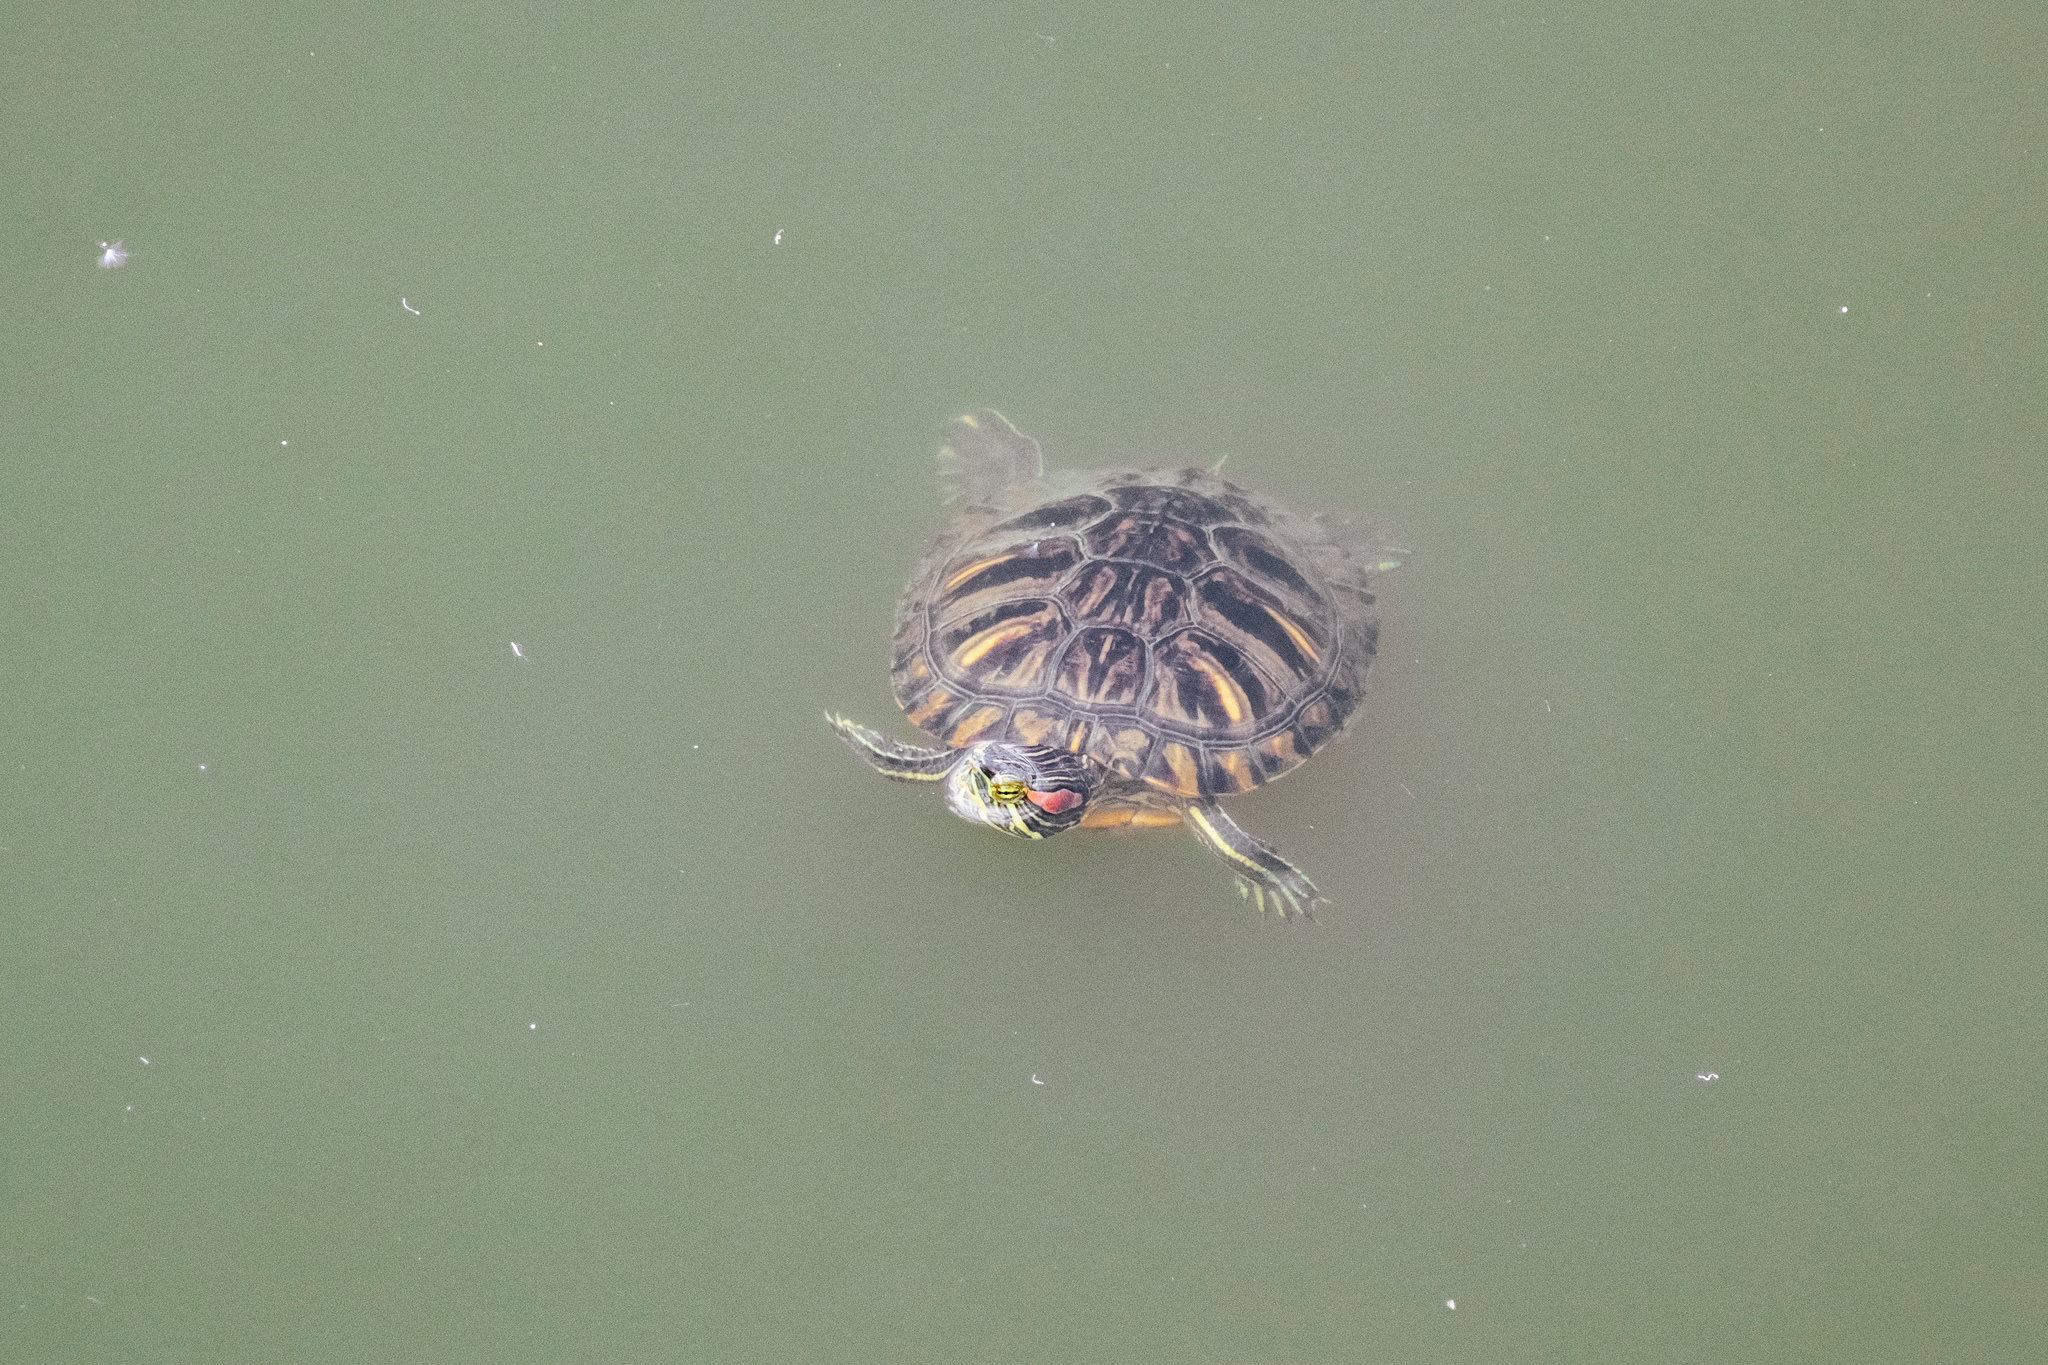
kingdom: Animalia
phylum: Chordata
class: Testudines
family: Emydidae
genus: Trachemys
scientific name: Trachemys scripta
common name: Slider
